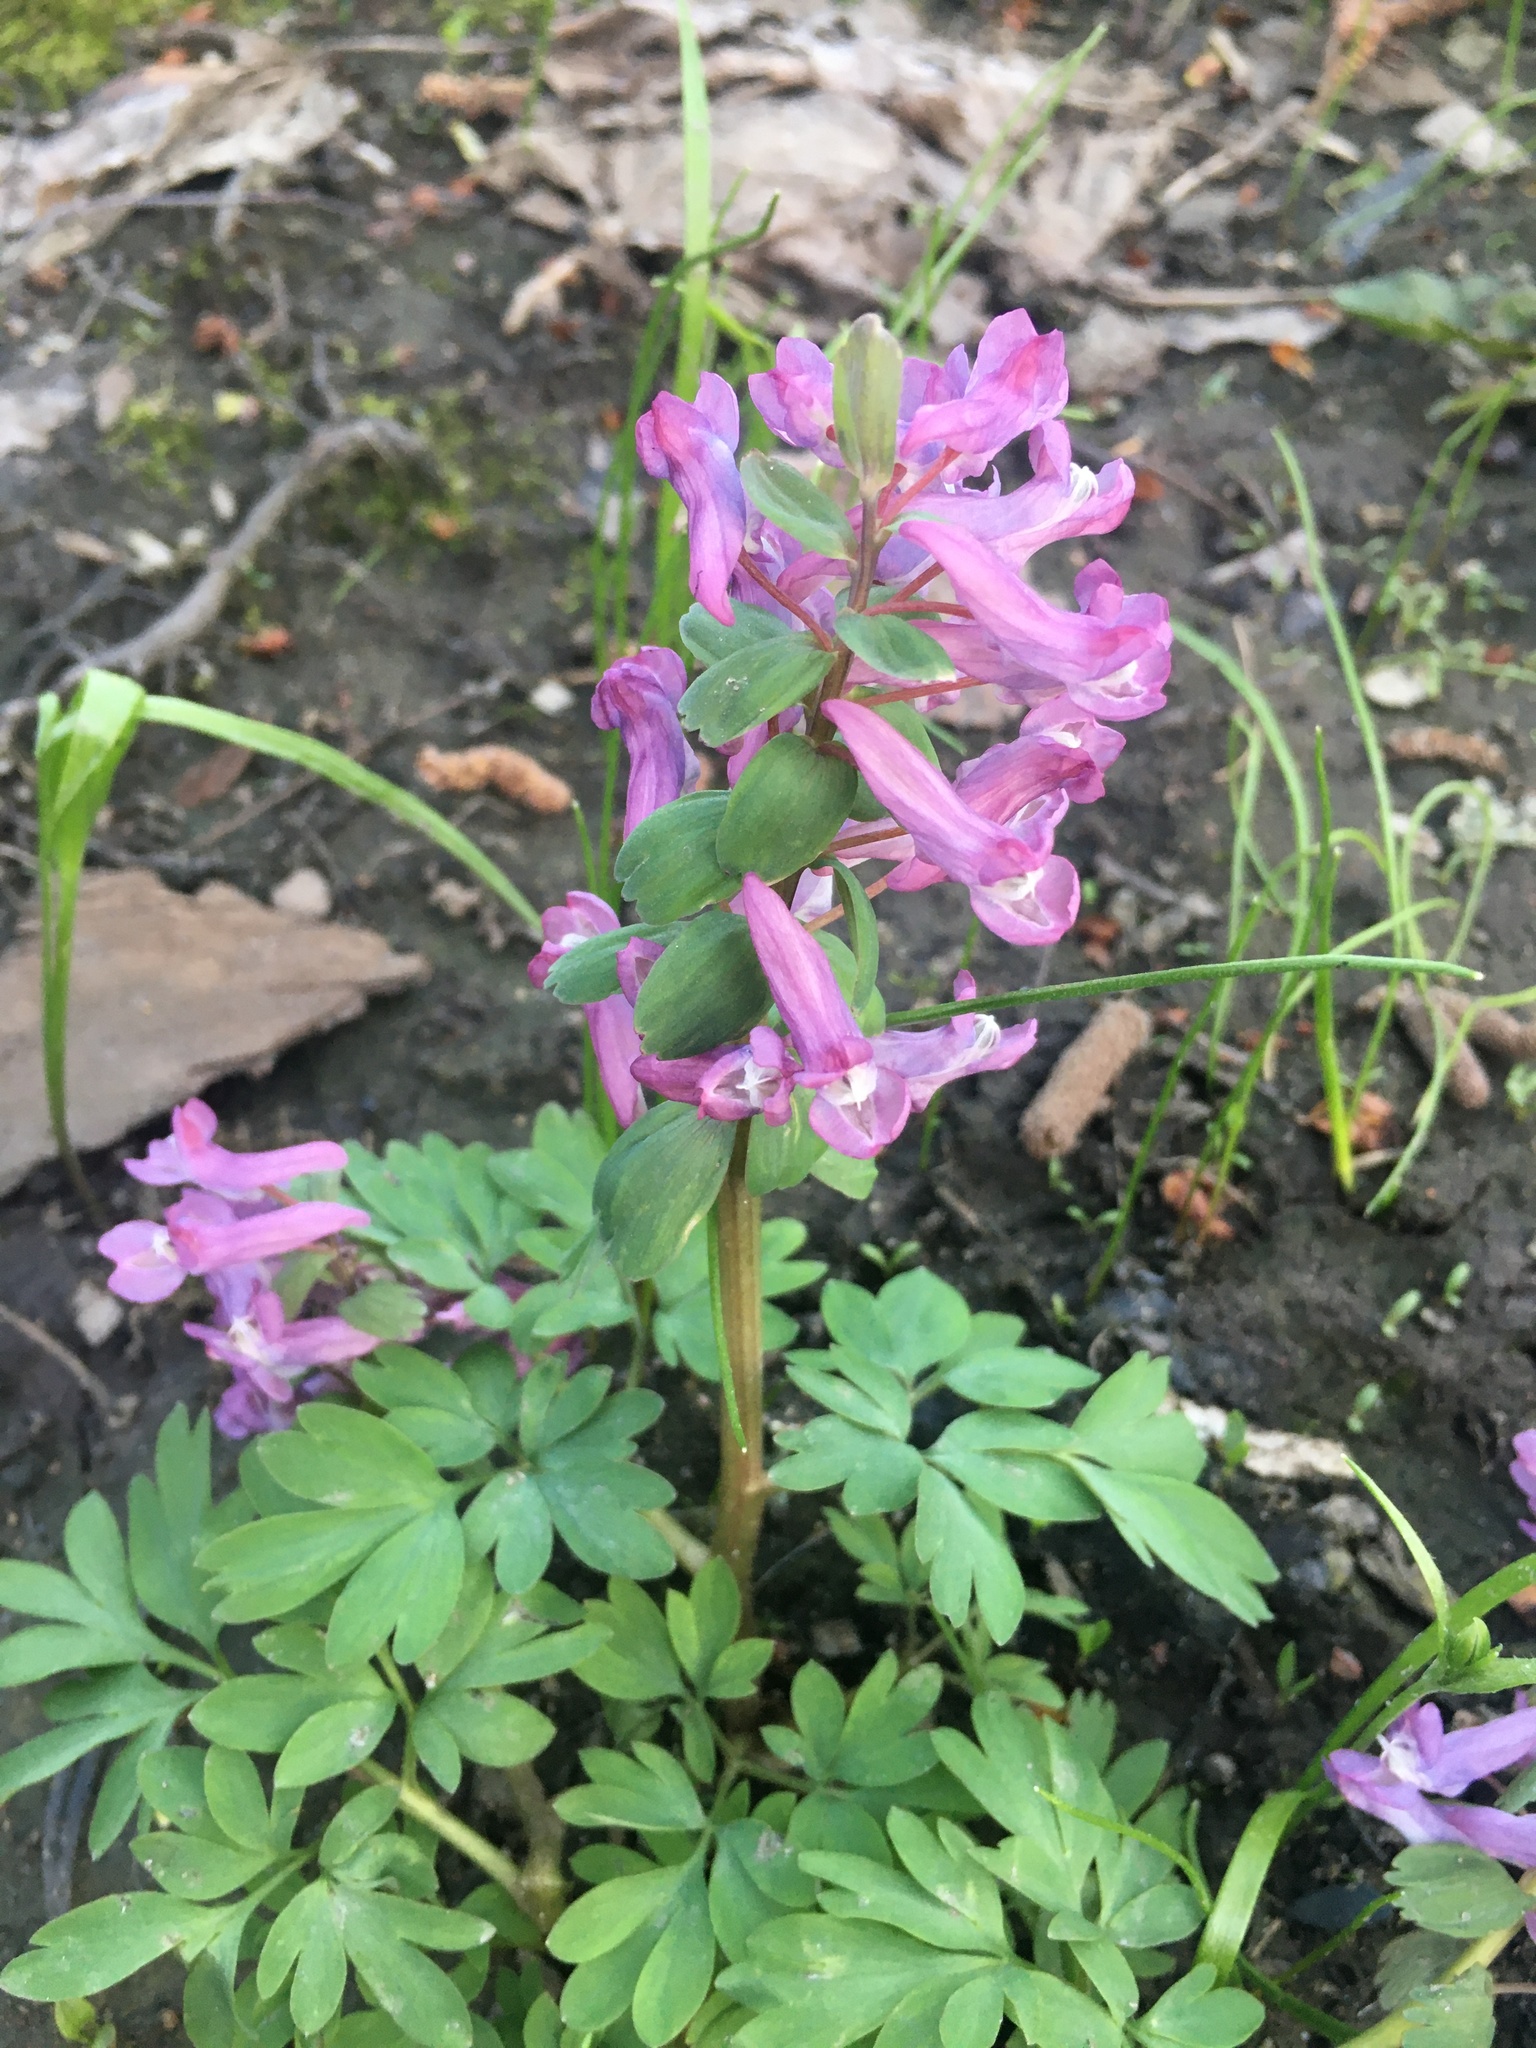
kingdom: Plantae
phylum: Tracheophyta
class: Magnoliopsida
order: Ranunculales
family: Papaveraceae
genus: Corydalis
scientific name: Corydalis solida
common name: Bird-in-a-bush
